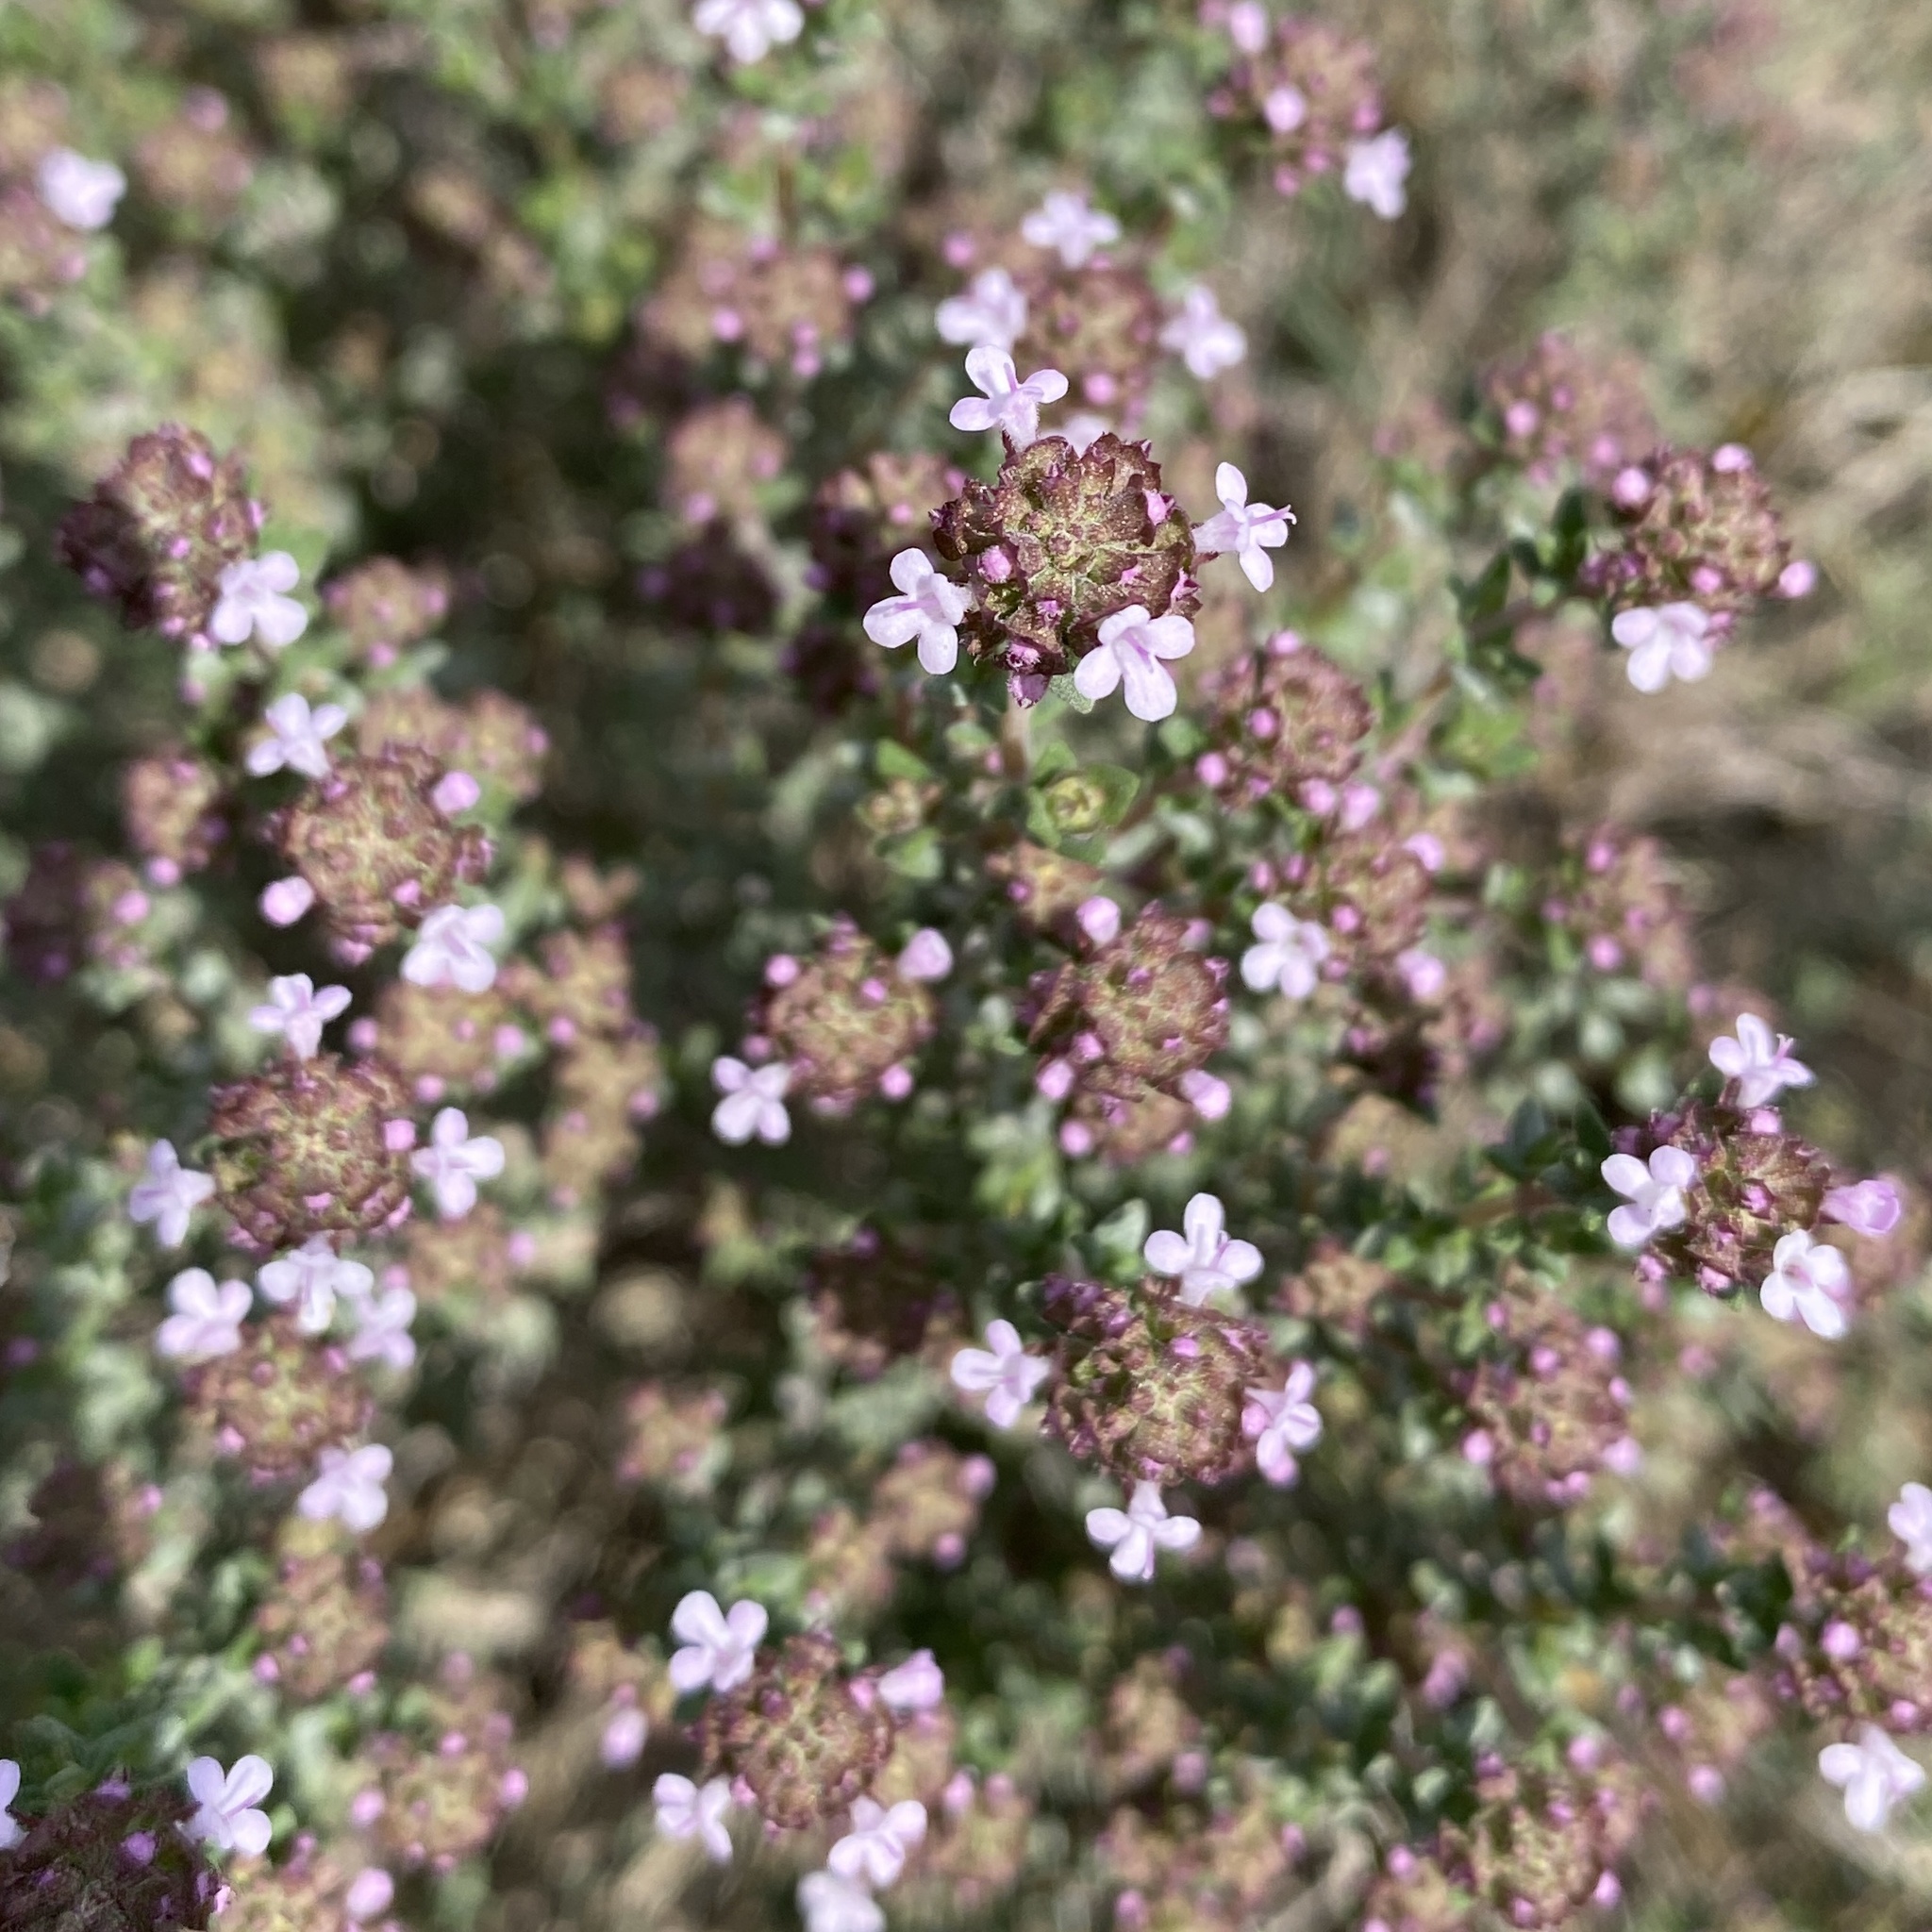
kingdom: Plantae
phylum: Tracheophyta
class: Magnoliopsida
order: Lamiales
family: Lamiaceae
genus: Thymus
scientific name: Thymus vulgaris
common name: Garden thyme
